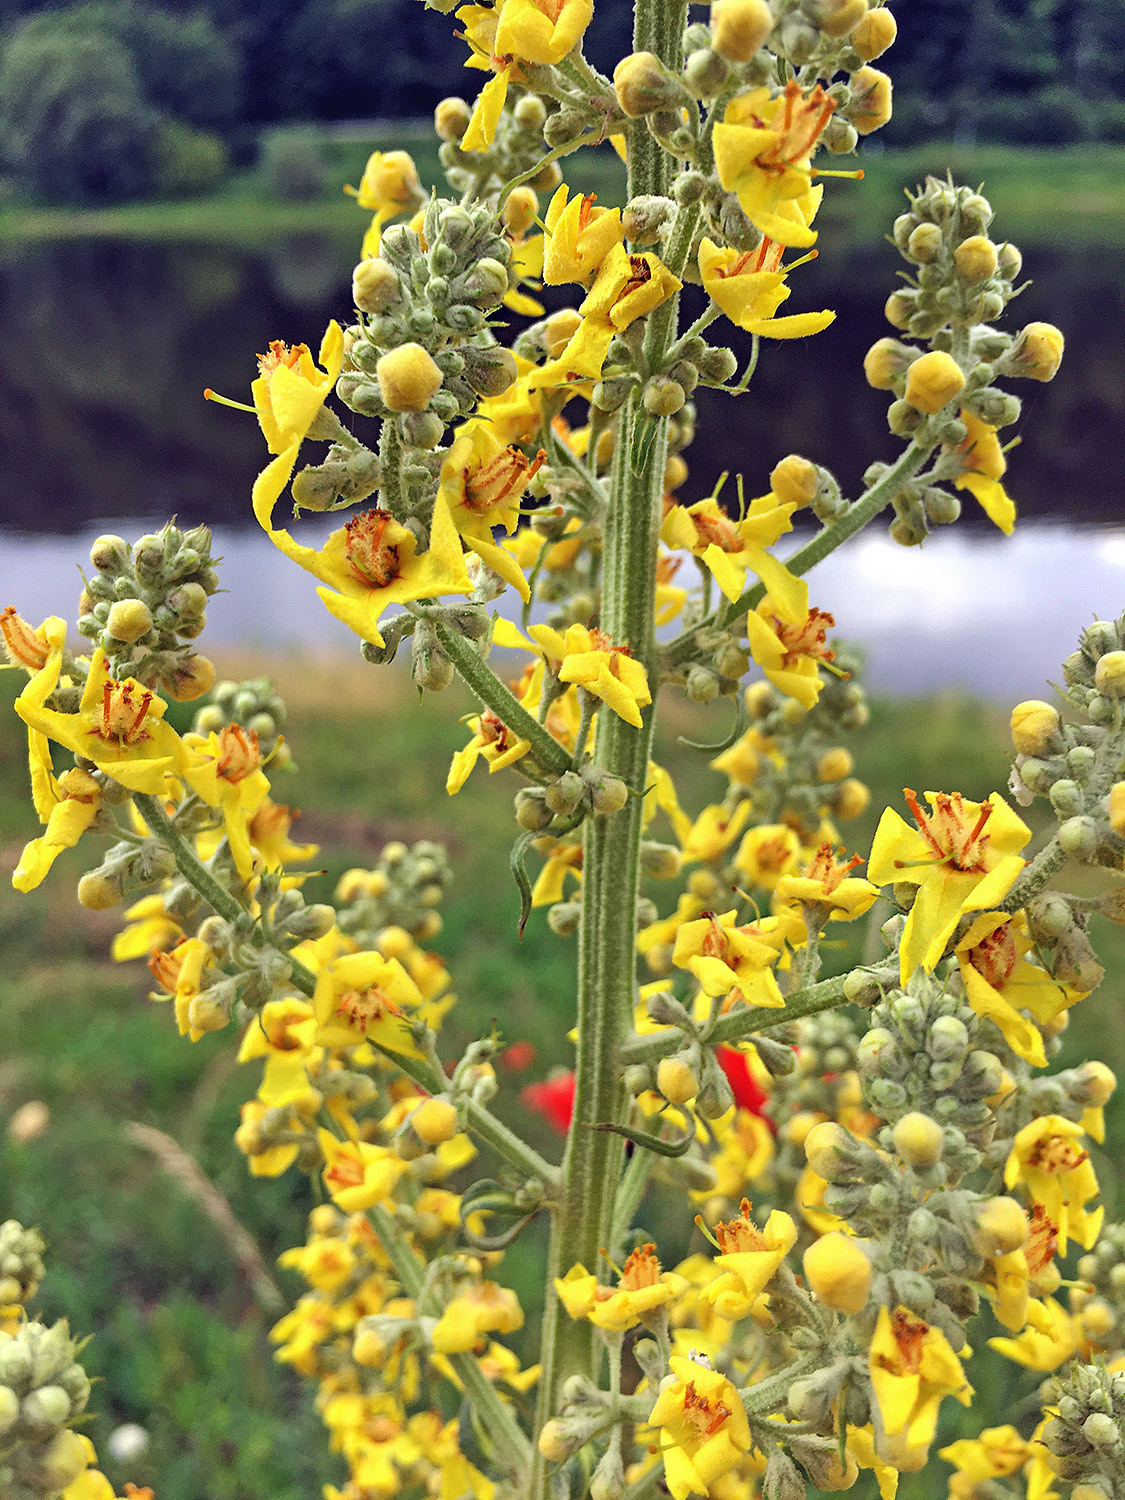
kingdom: Plantae
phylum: Tracheophyta
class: Magnoliopsida
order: Lamiales
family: Scrophulariaceae
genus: Verbascum
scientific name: Verbascum lychnitis
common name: White mullein
